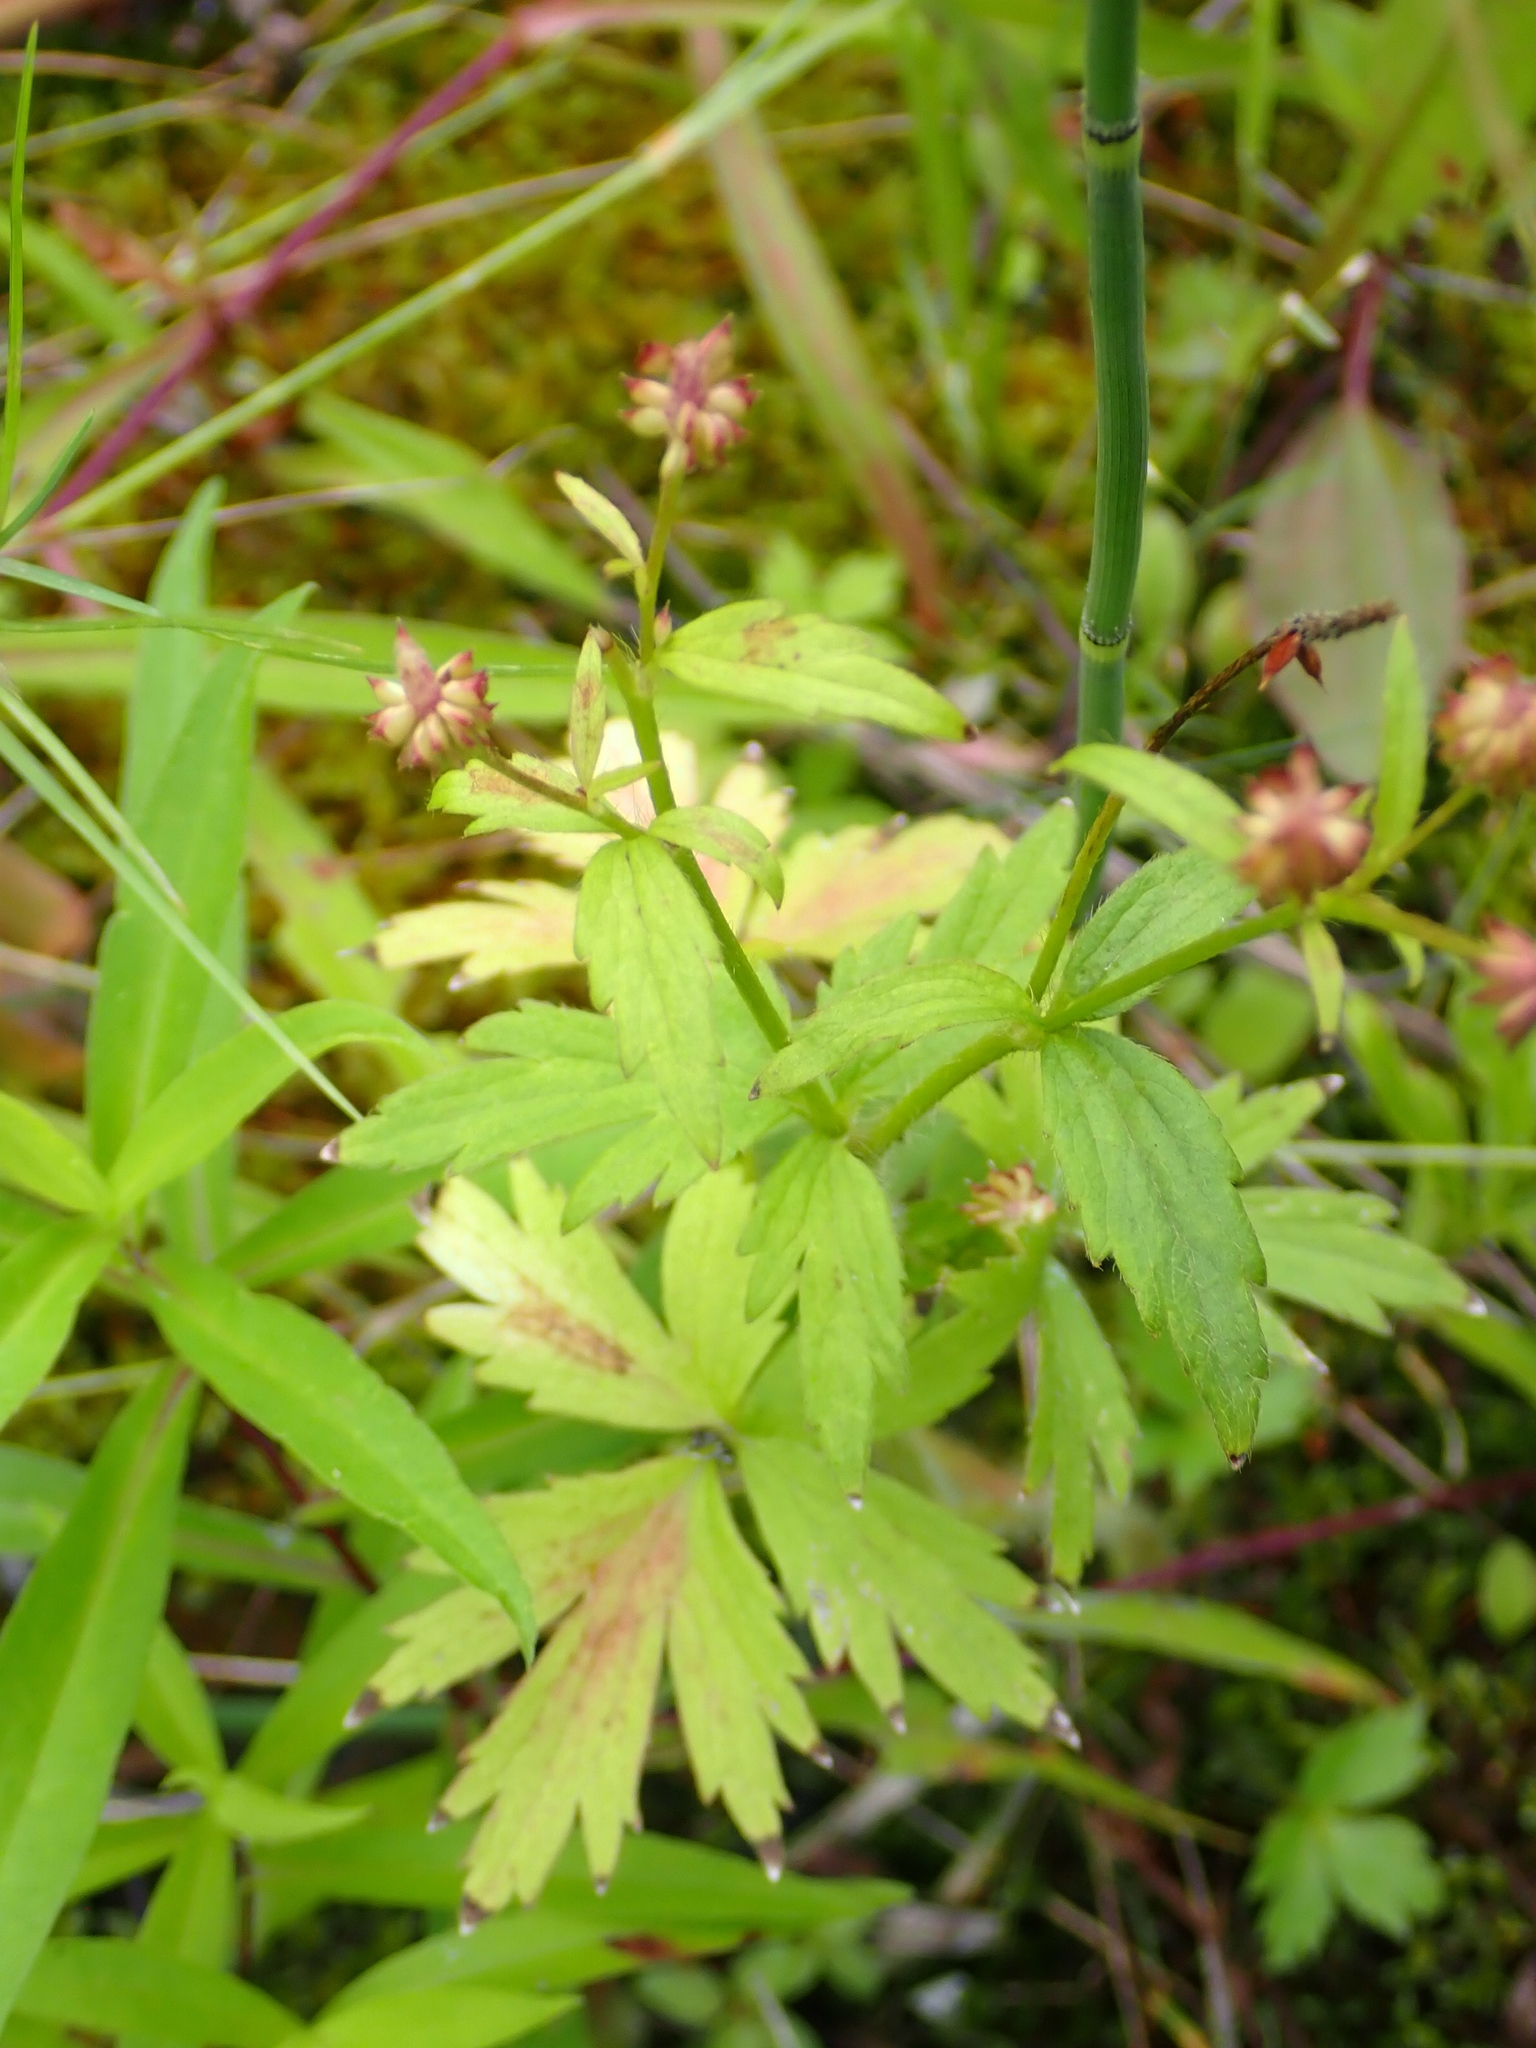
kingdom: Plantae
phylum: Tracheophyta
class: Magnoliopsida
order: Ranunculales
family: Ranunculaceae
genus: Ranunculus
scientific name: Ranunculus macounii
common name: Macoun's buttercup
